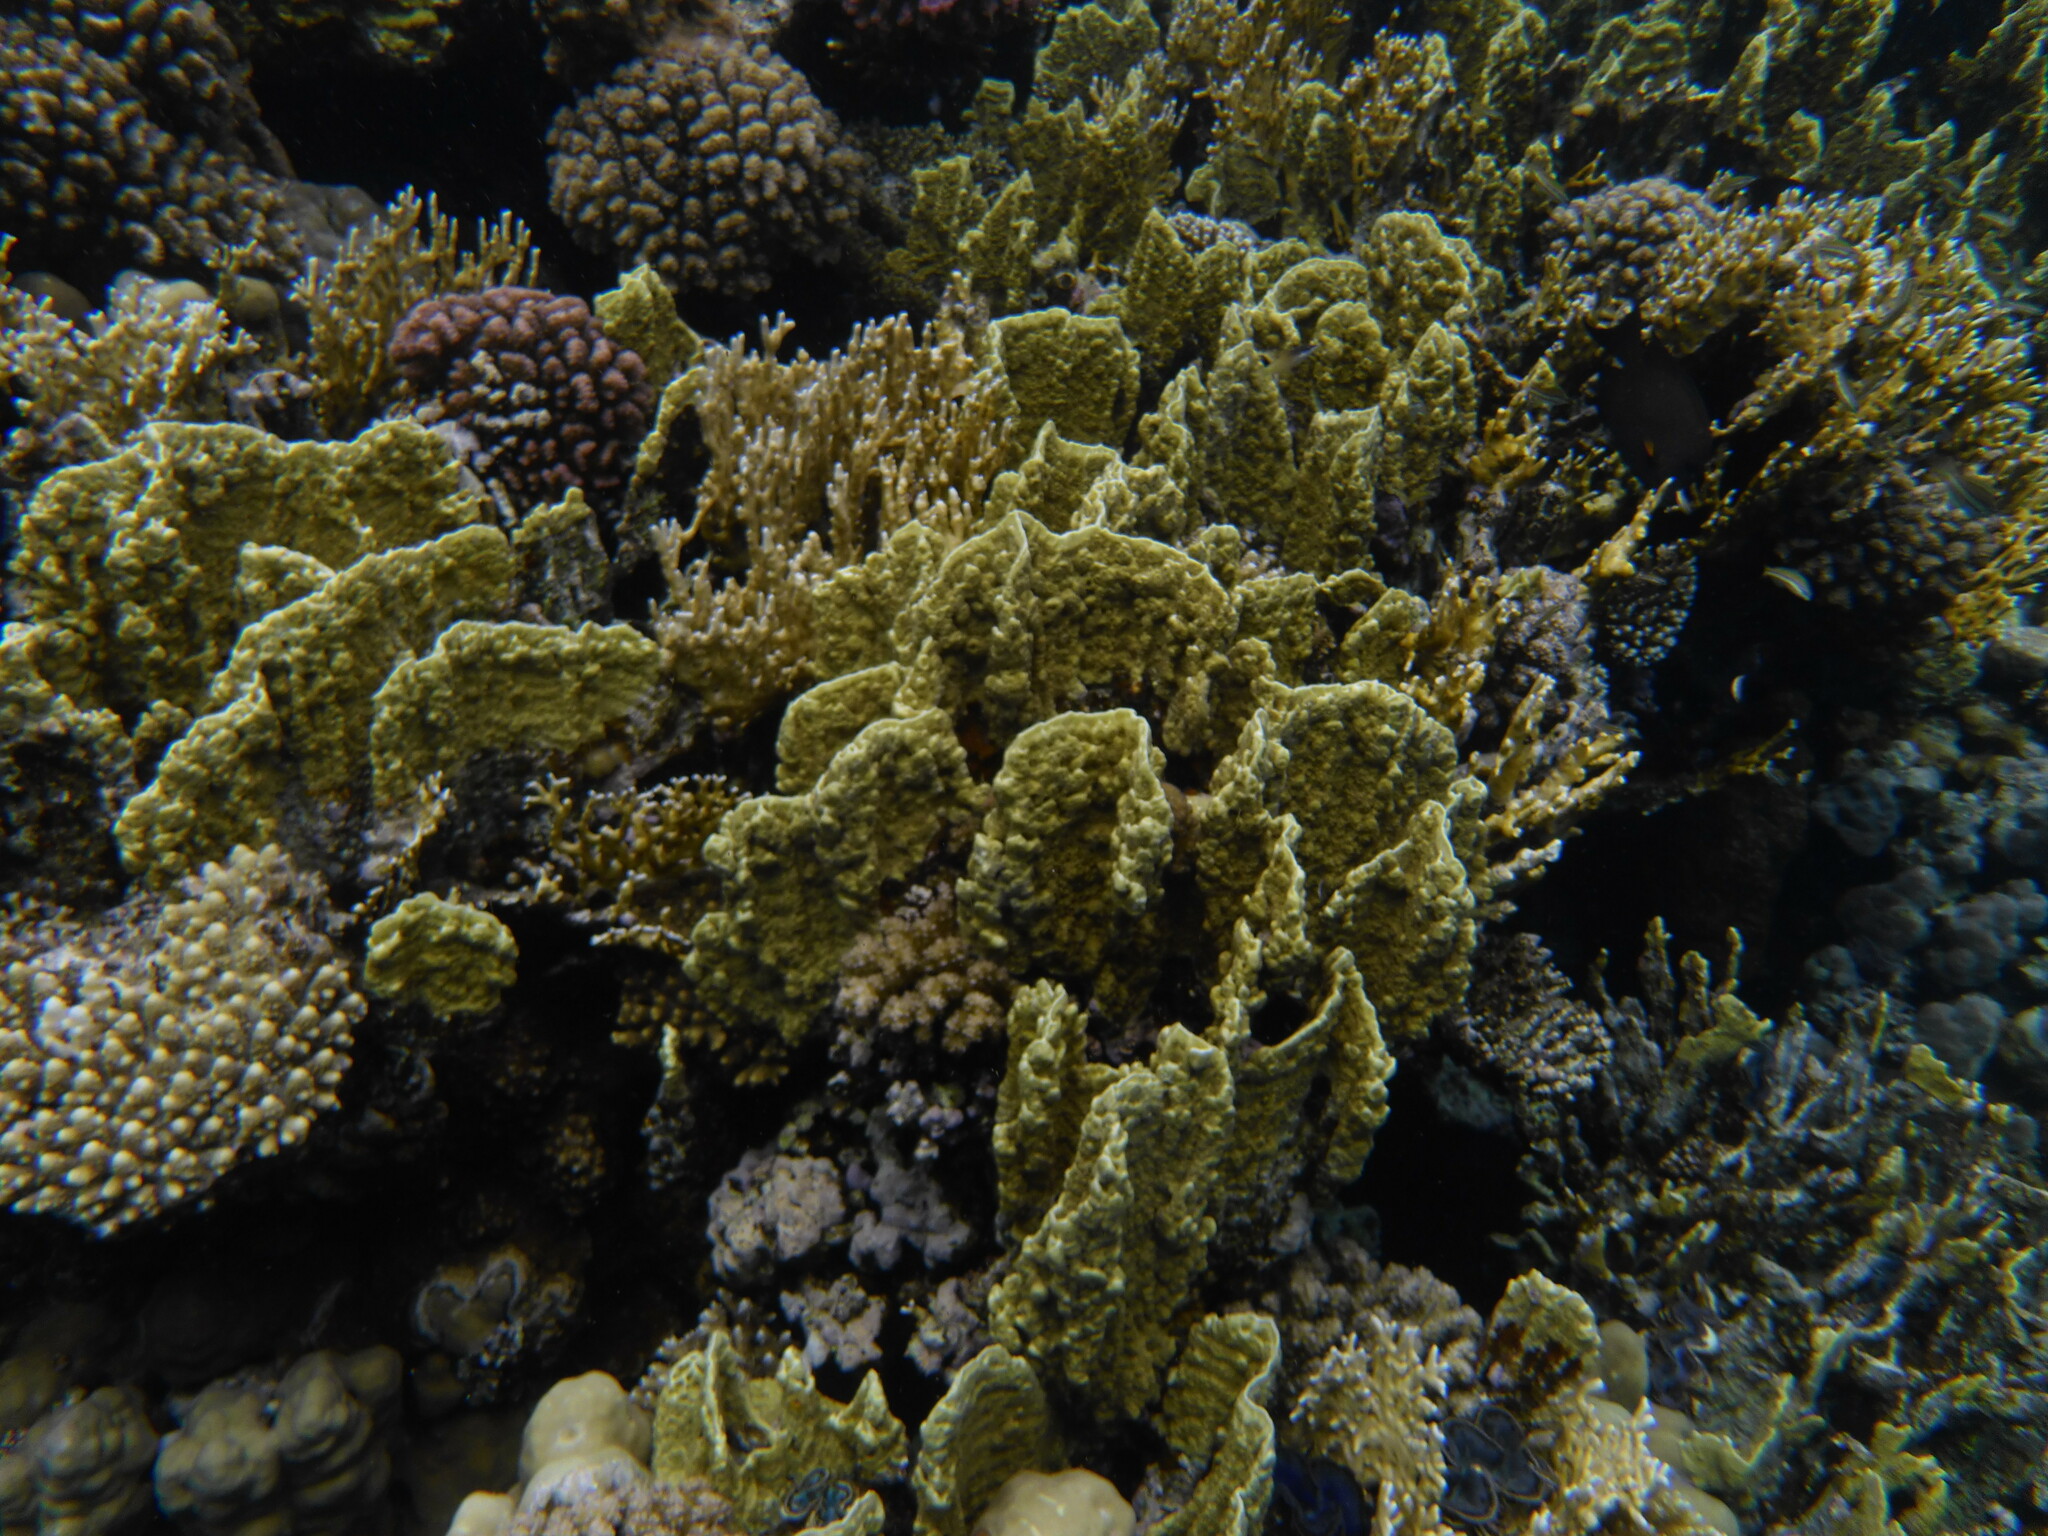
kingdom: Animalia
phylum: Cnidaria
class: Hydrozoa
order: Anthoathecata
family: Milleporidae
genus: Millepora
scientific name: Millepora platyphylla
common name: Sheet fire coral
